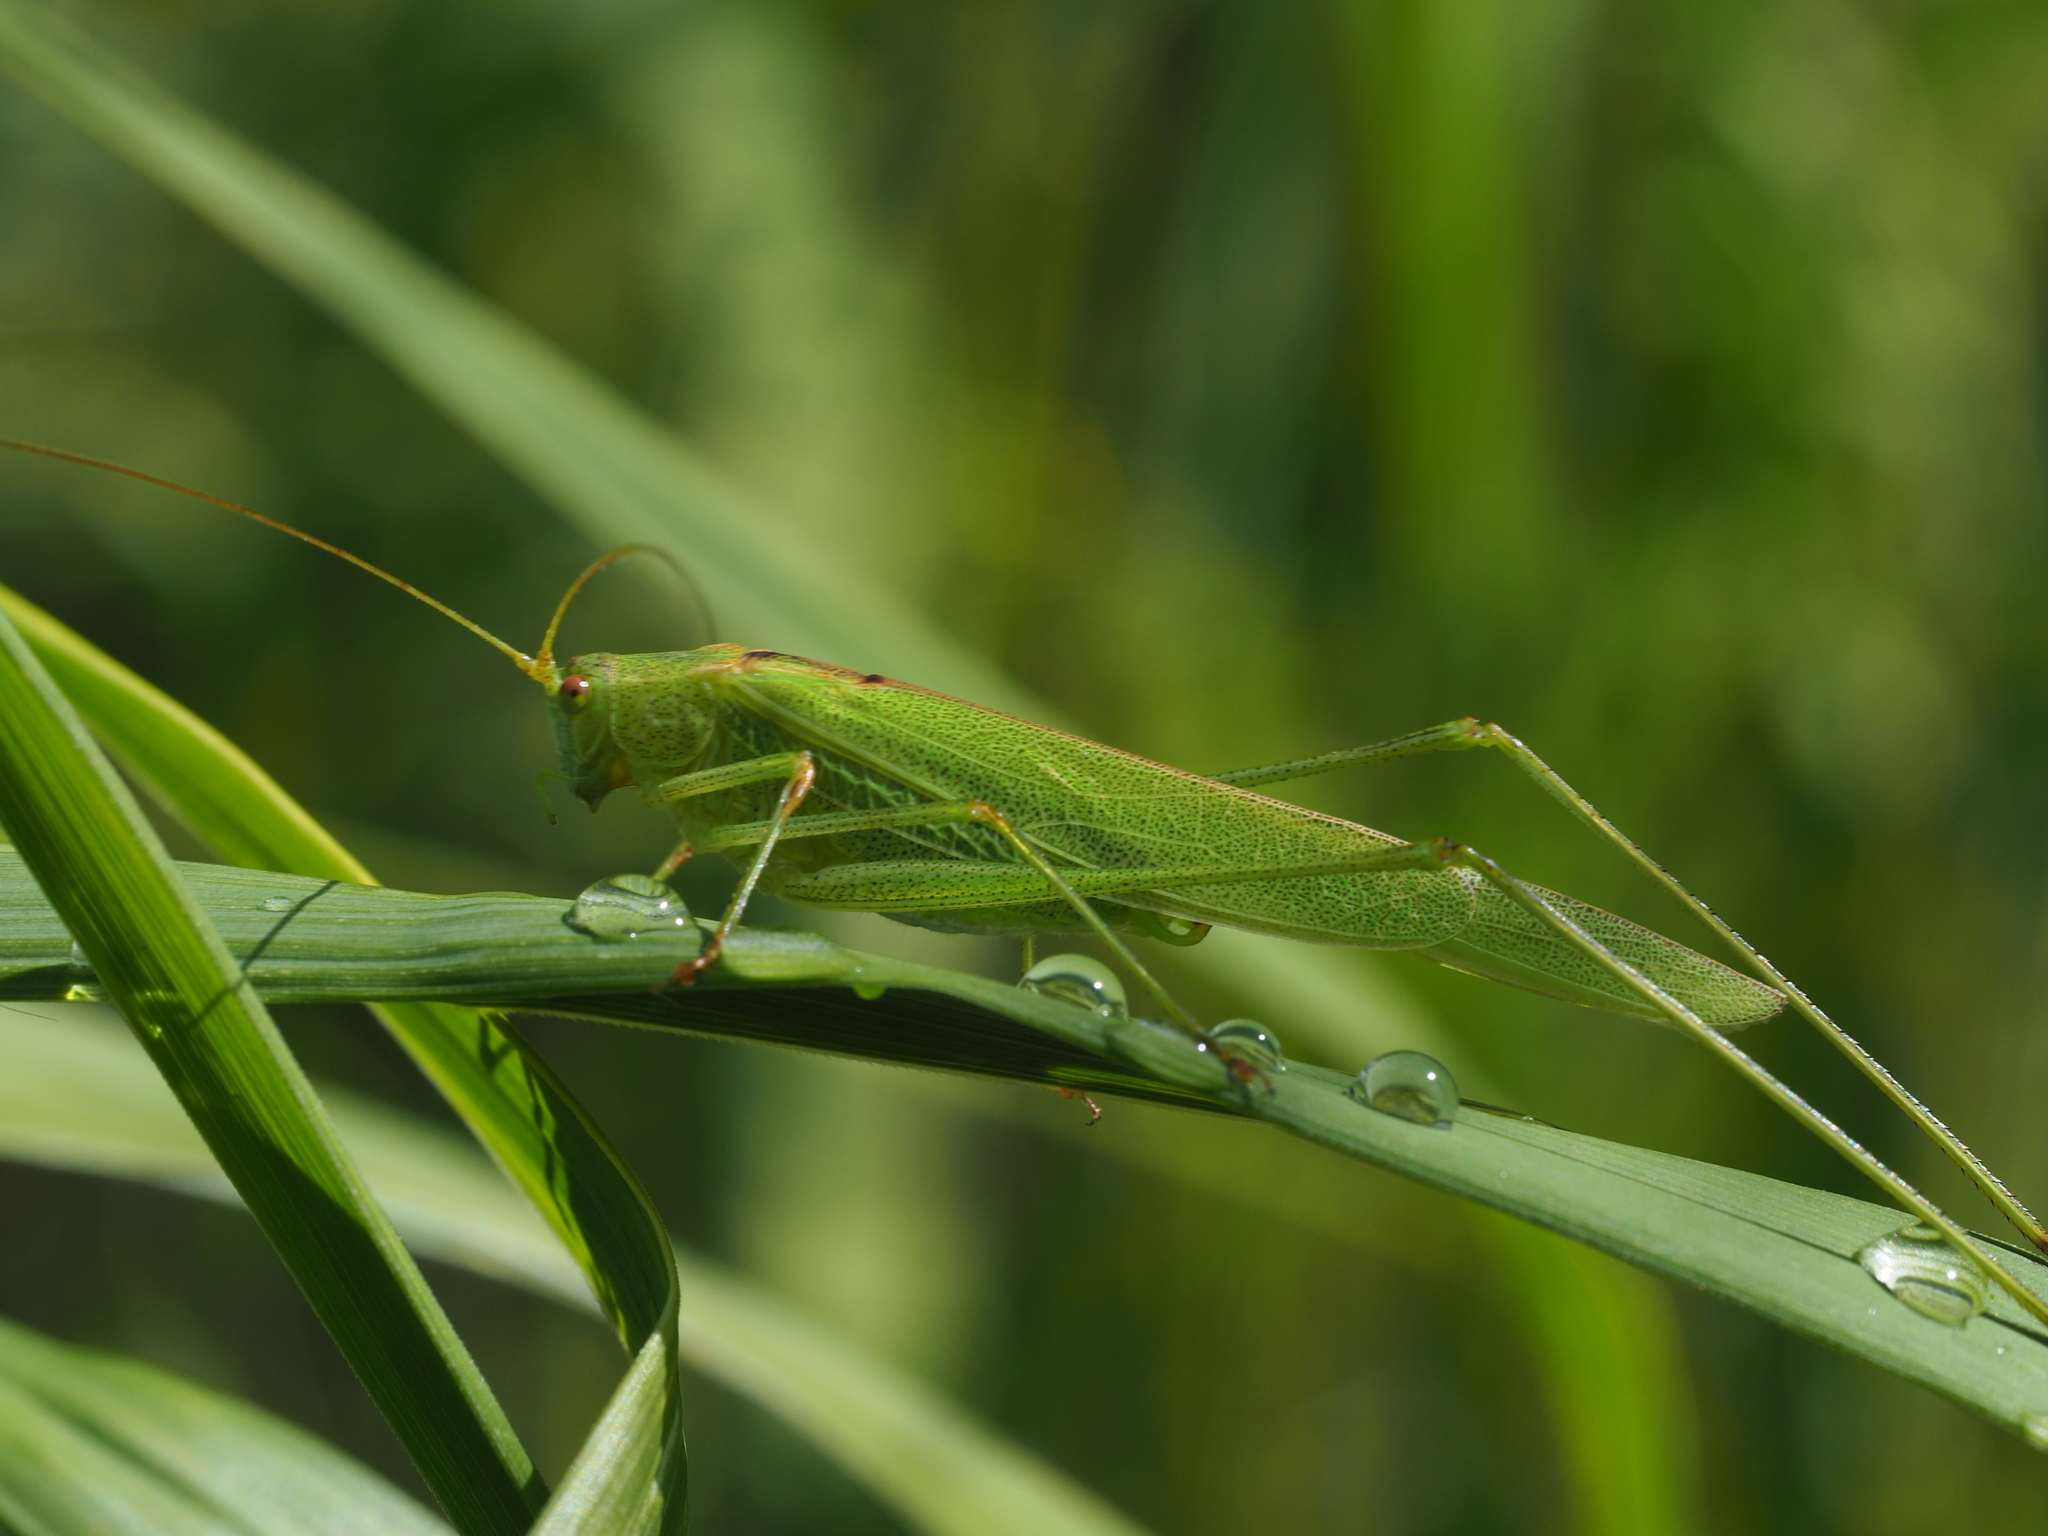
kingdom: Animalia
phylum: Arthropoda
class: Insecta
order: Orthoptera
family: Tettigoniidae
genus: Phaneroptera
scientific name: Phaneroptera falcata
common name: Sickle-bearing bush-cricket
